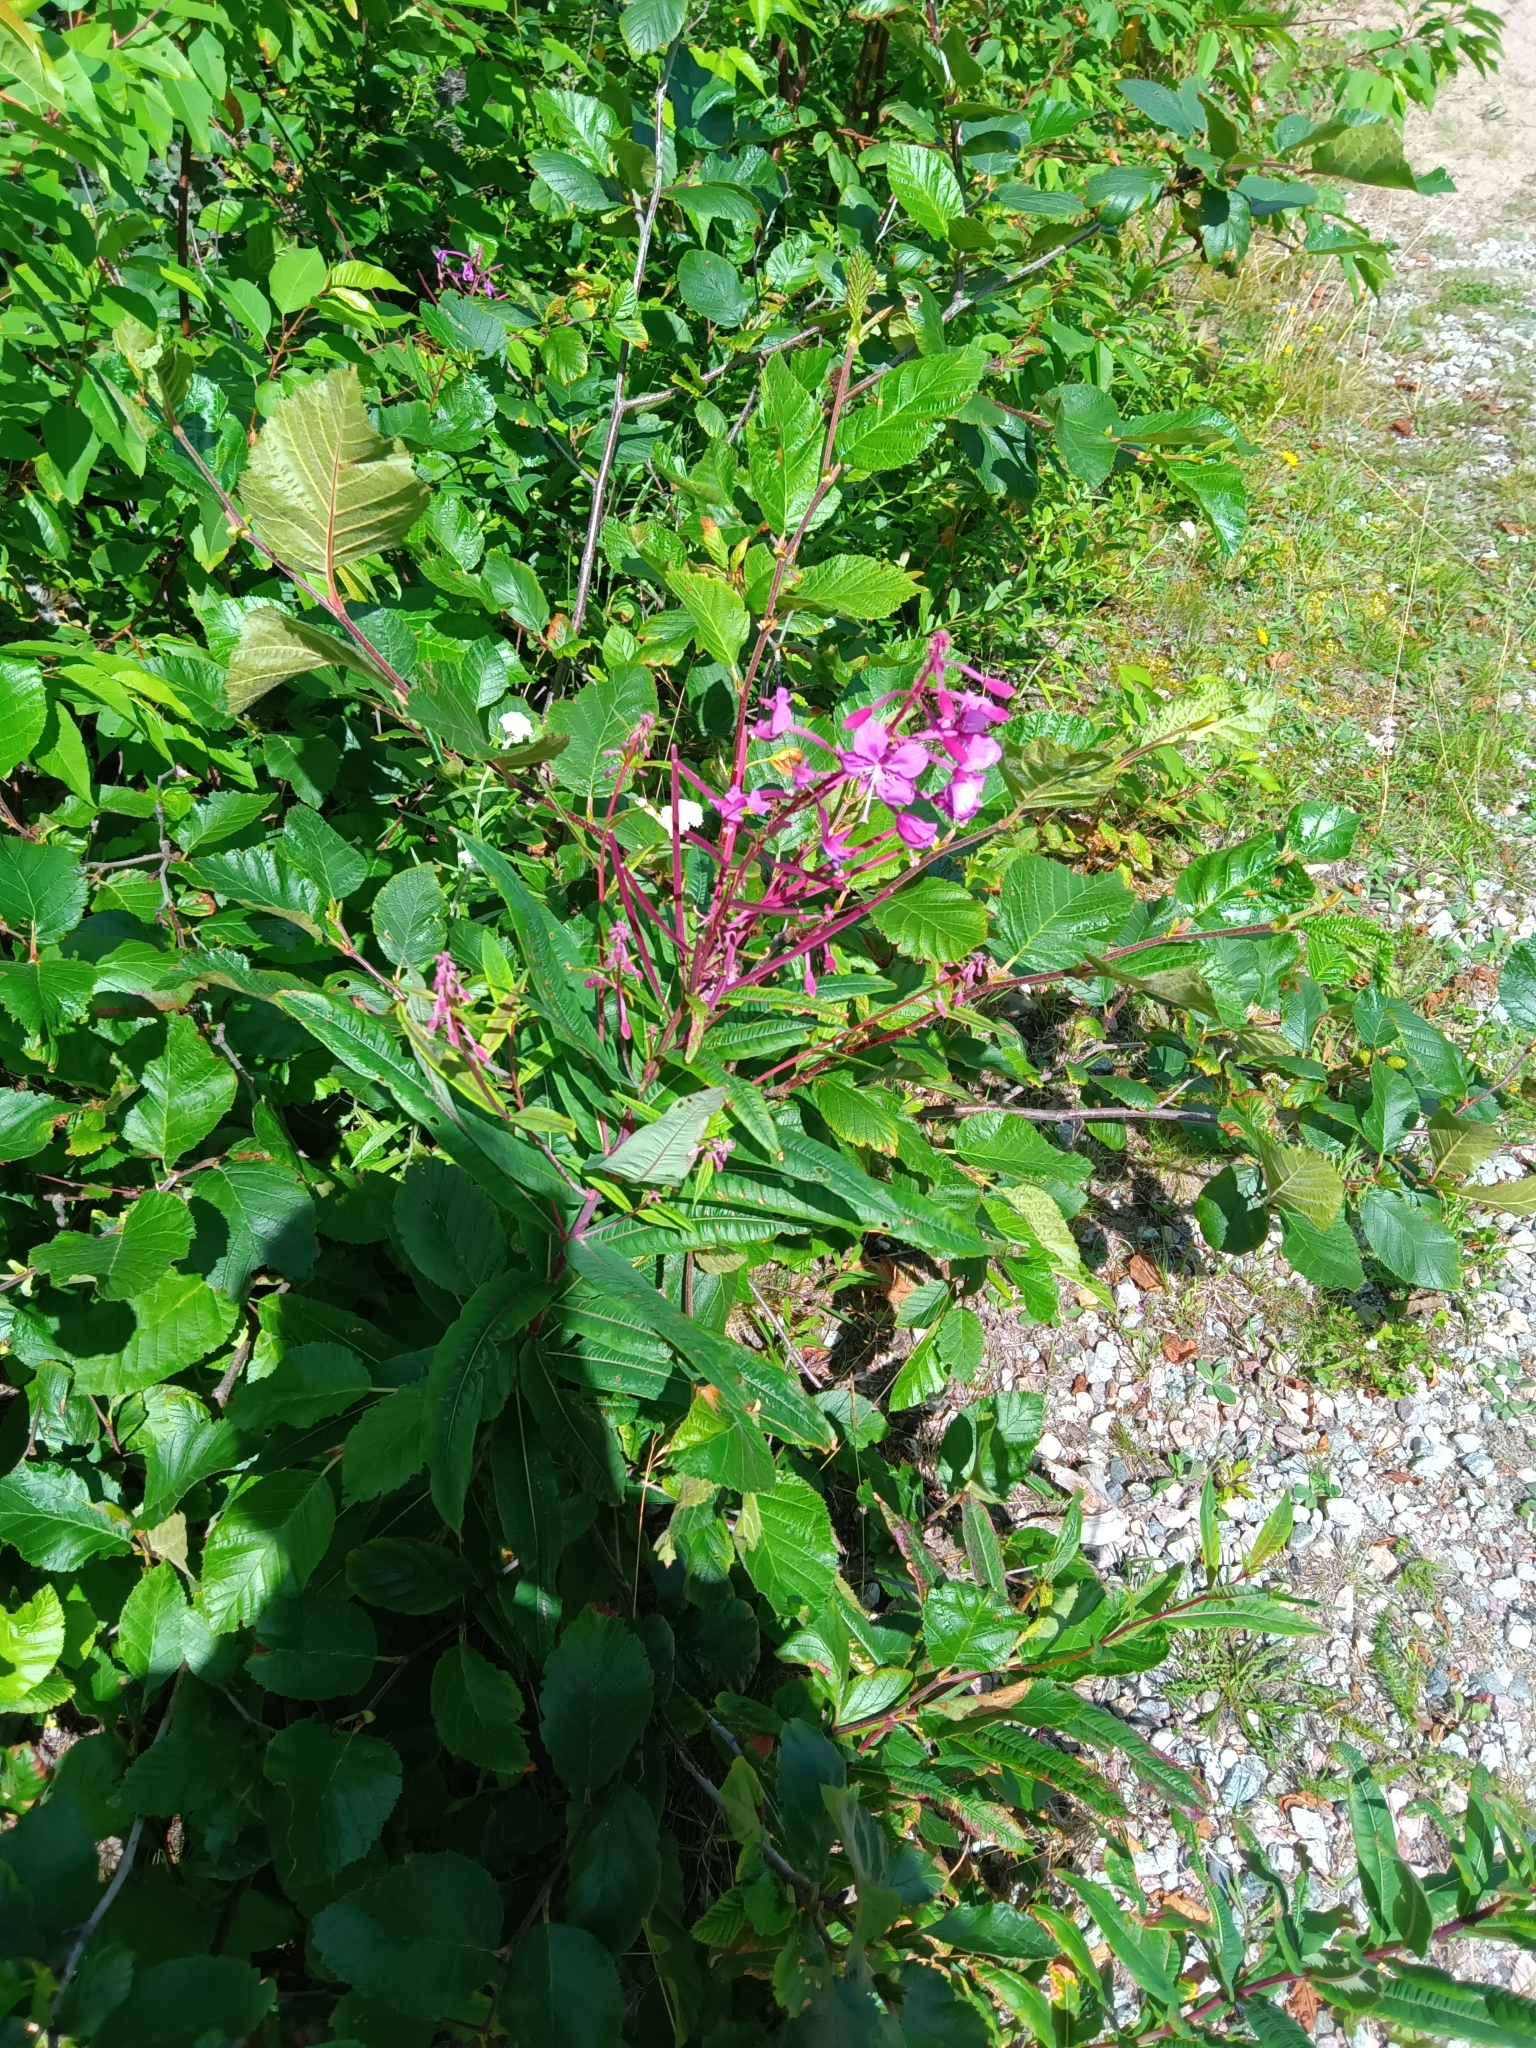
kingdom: Plantae
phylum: Tracheophyta
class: Magnoliopsida
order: Myrtales
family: Onagraceae
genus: Chamaenerion
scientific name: Chamaenerion angustifolium
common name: Fireweed
